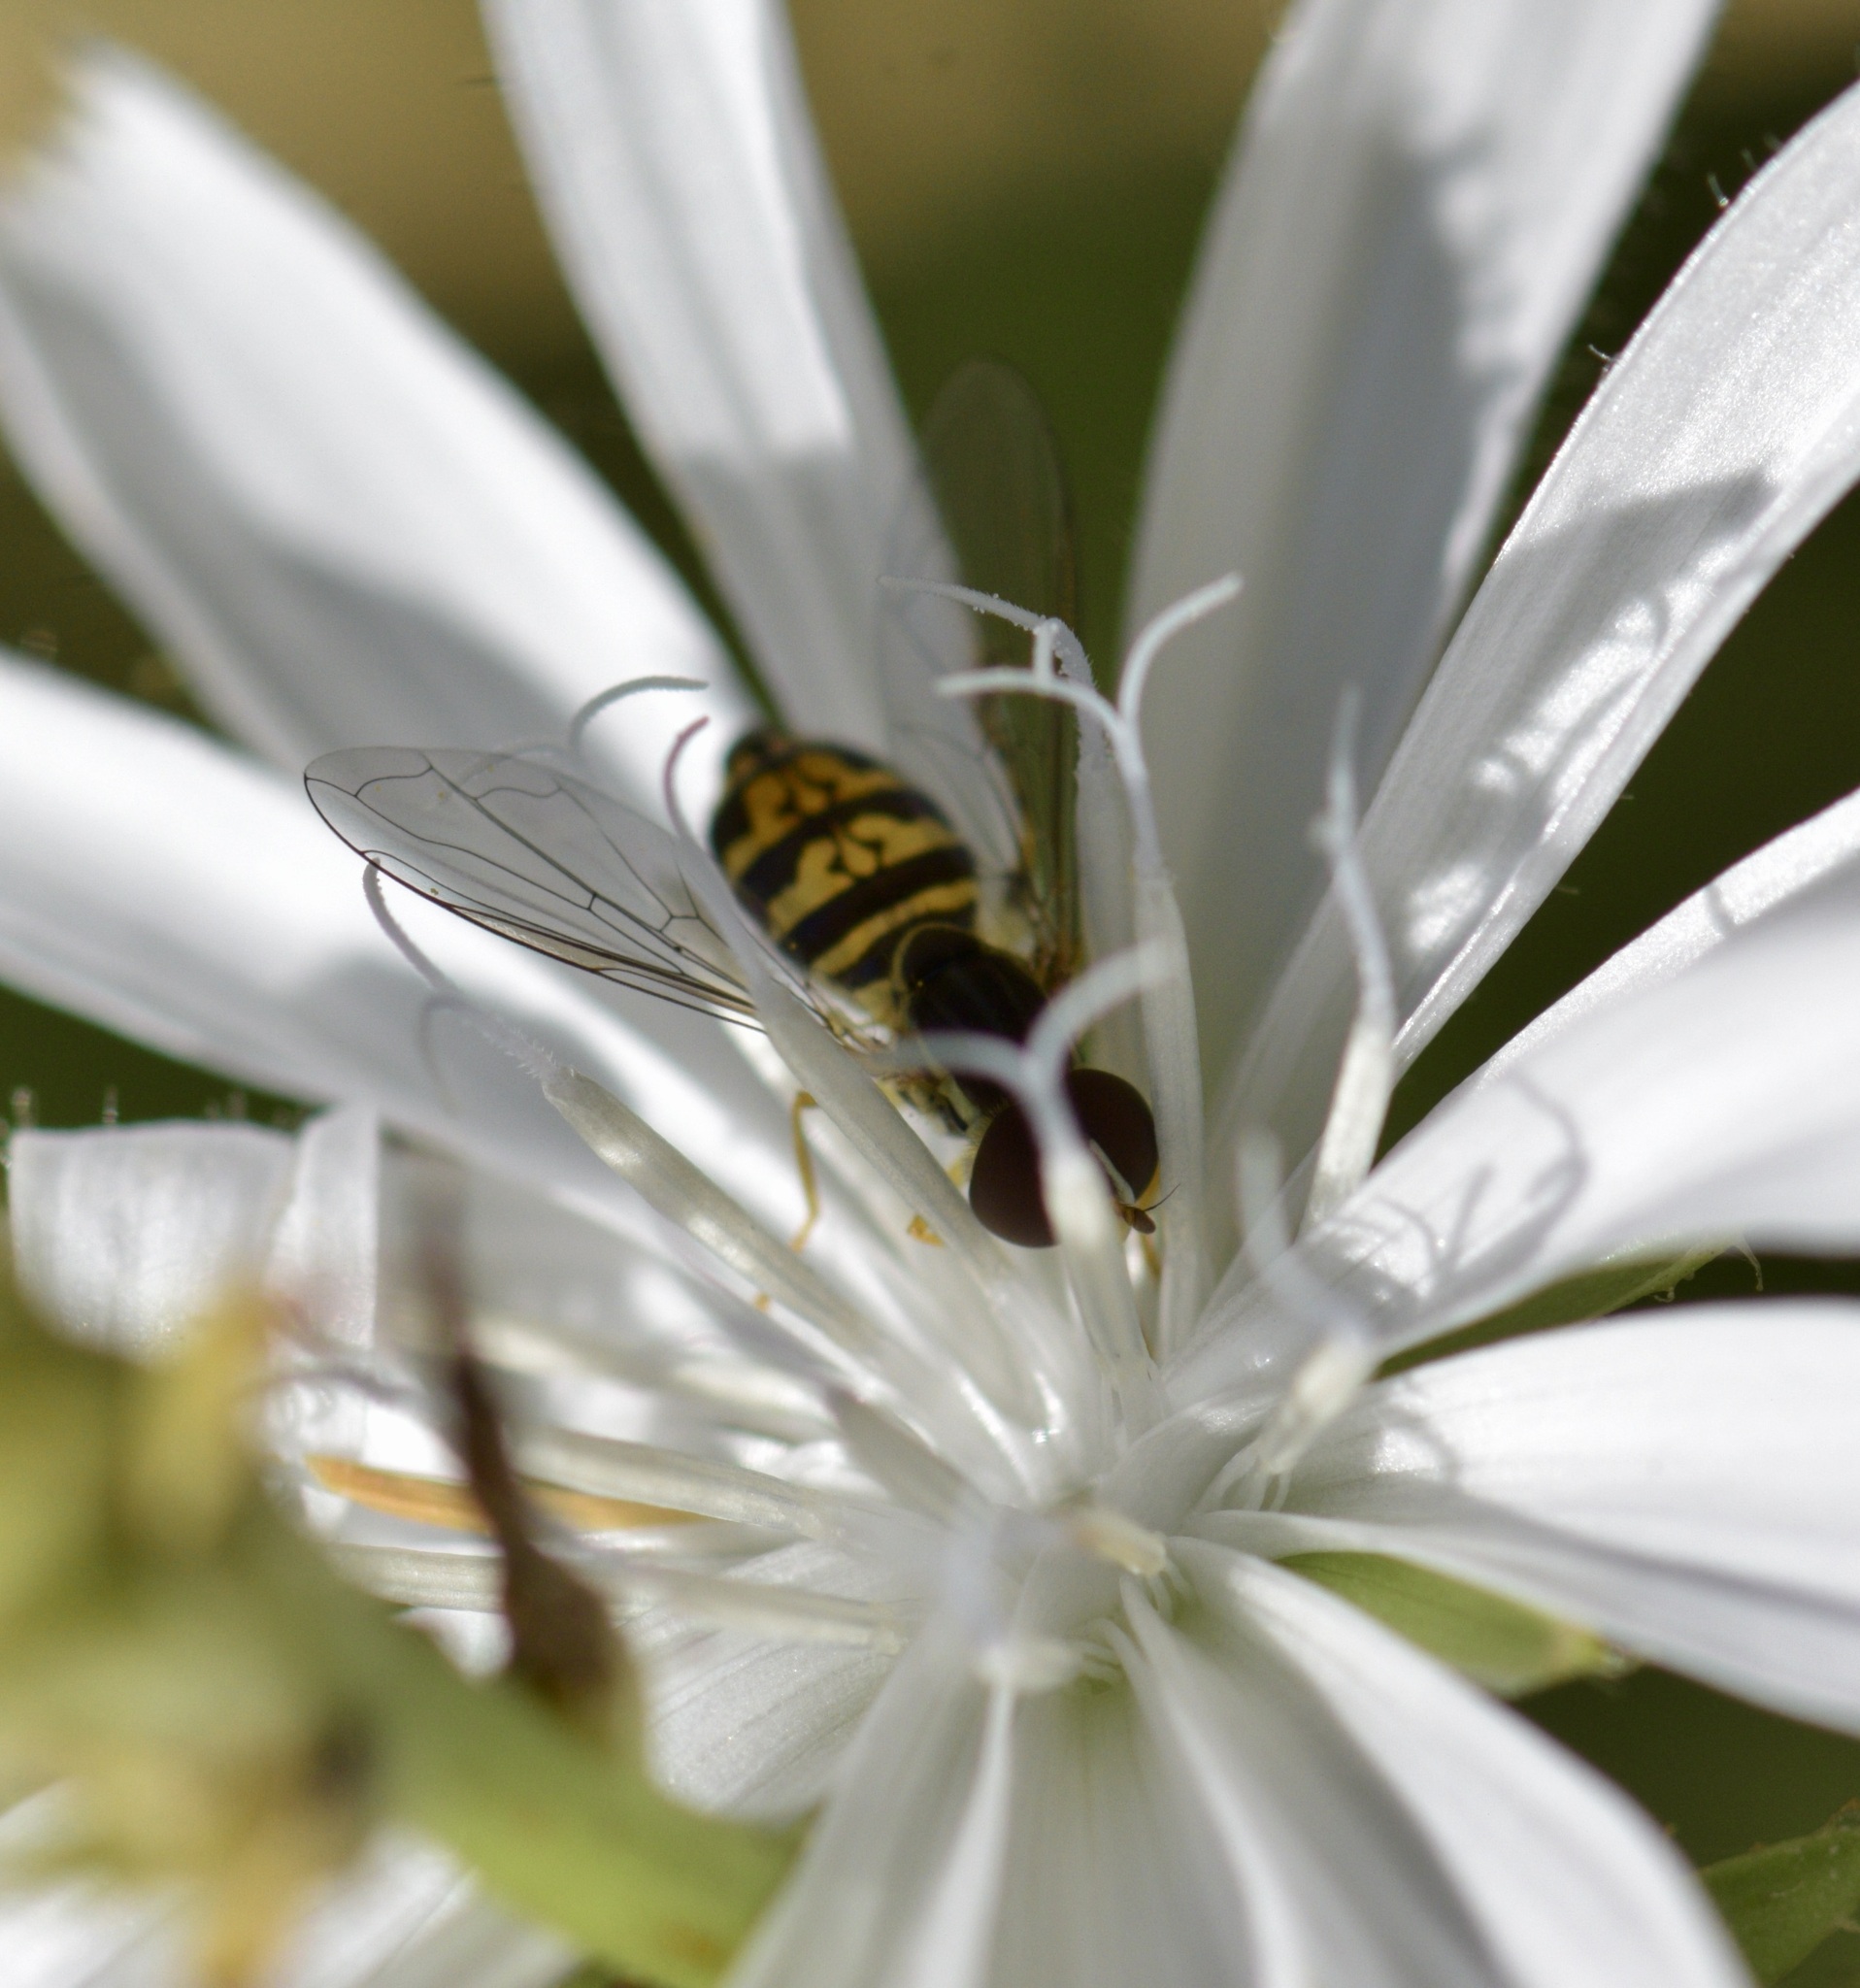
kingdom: Animalia
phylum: Arthropoda
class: Insecta
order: Diptera
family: Syrphidae
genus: Toxomerus
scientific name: Toxomerus geminatus
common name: Eastern calligrapher
